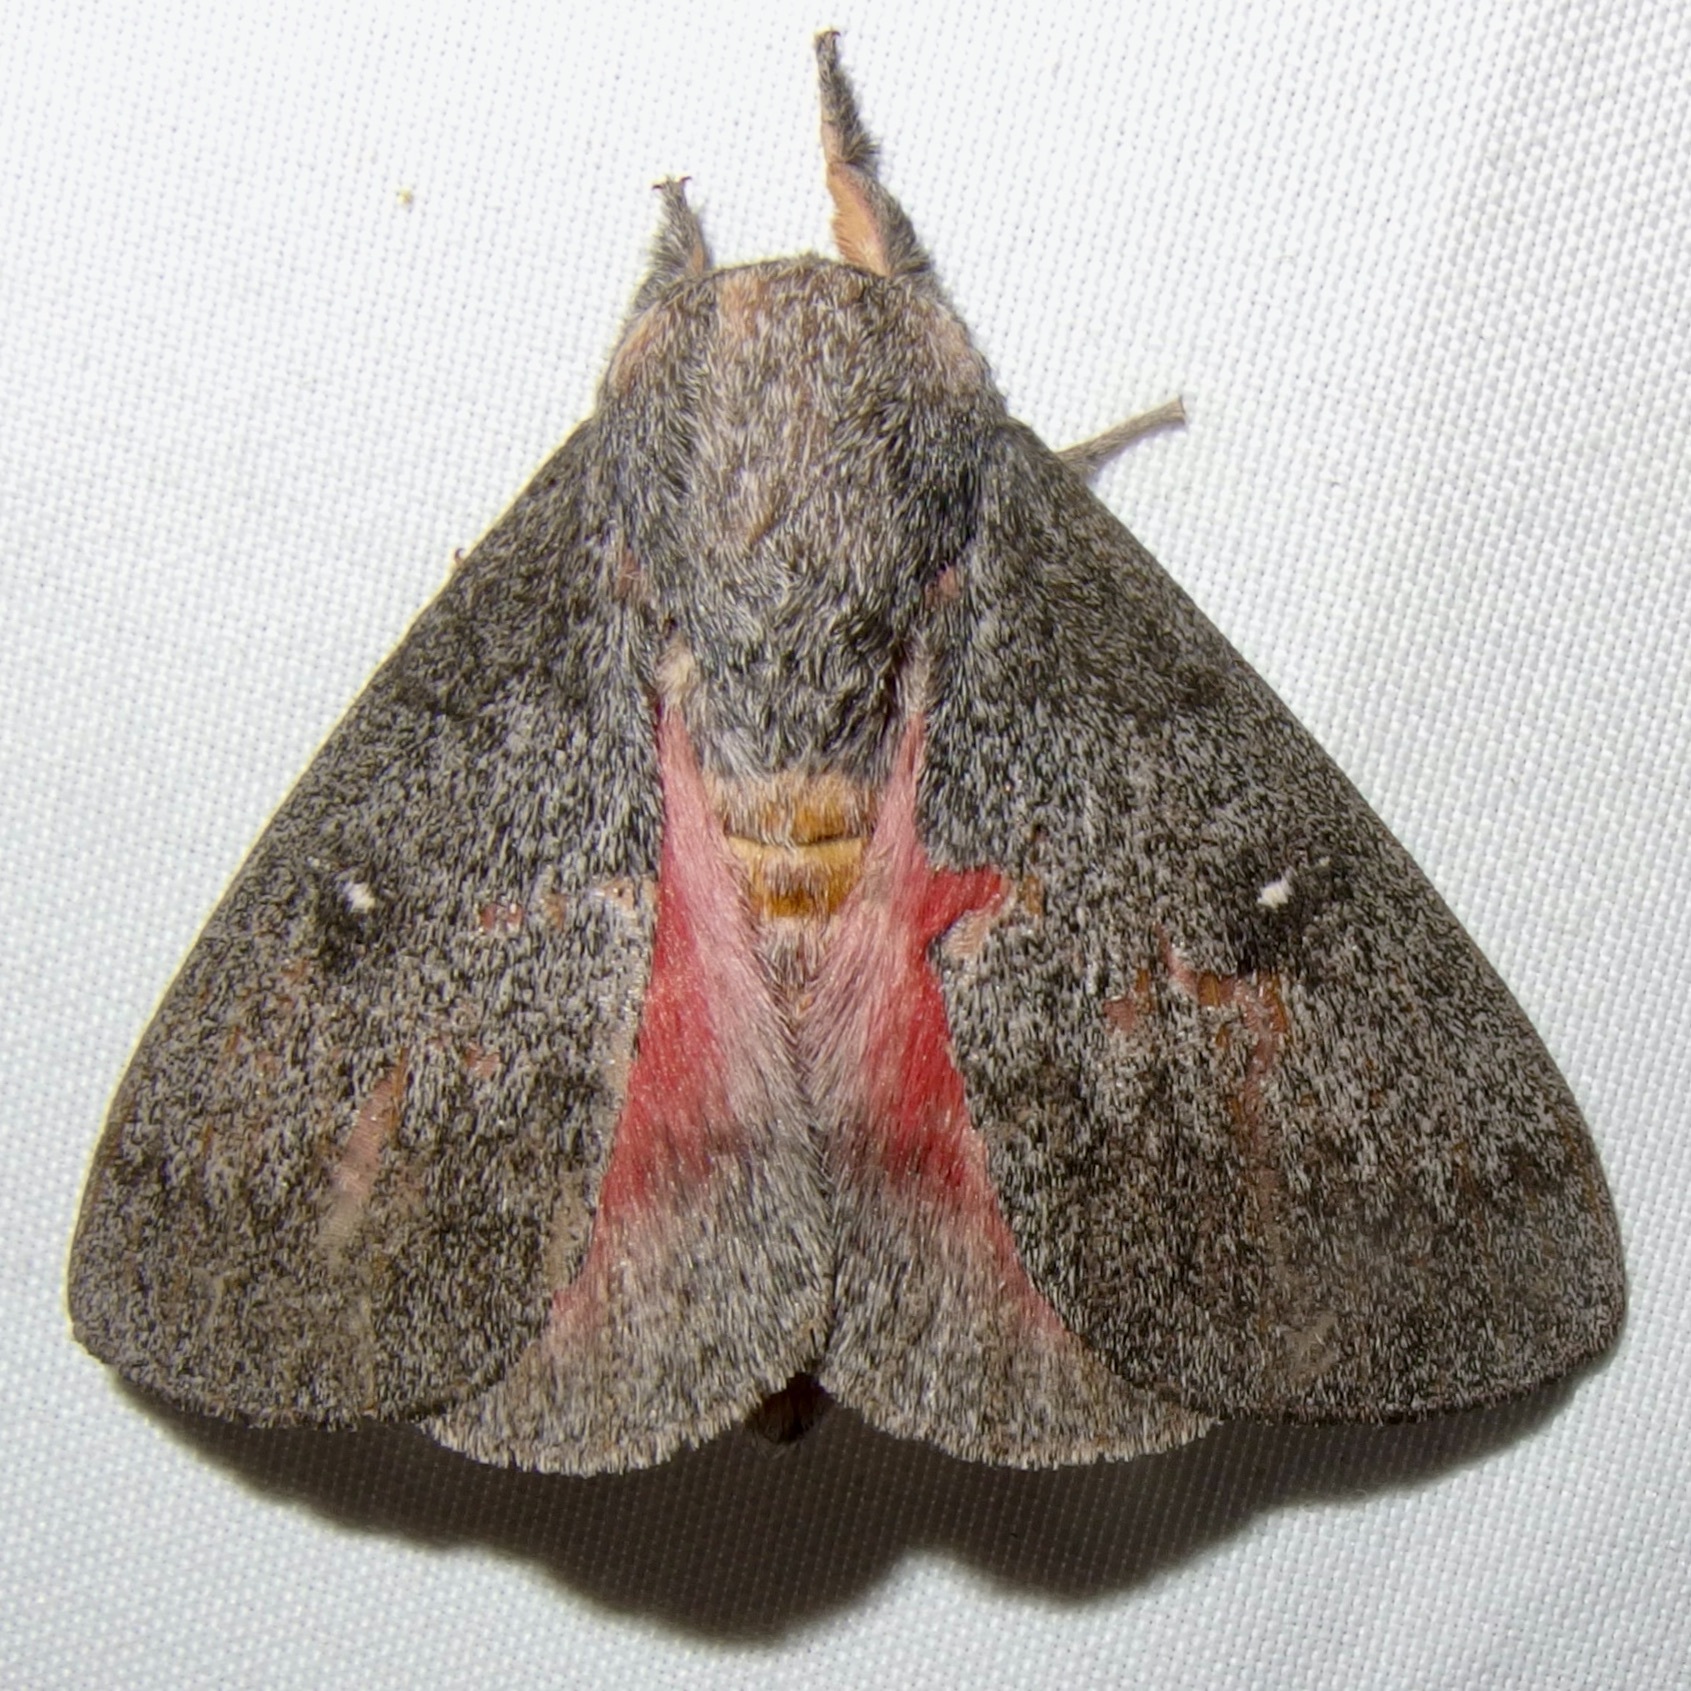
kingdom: Animalia
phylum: Arthropoda
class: Insecta
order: Lepidoptera
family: Saturniidae
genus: Syssphinx
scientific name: Syssphinx hubbardi
